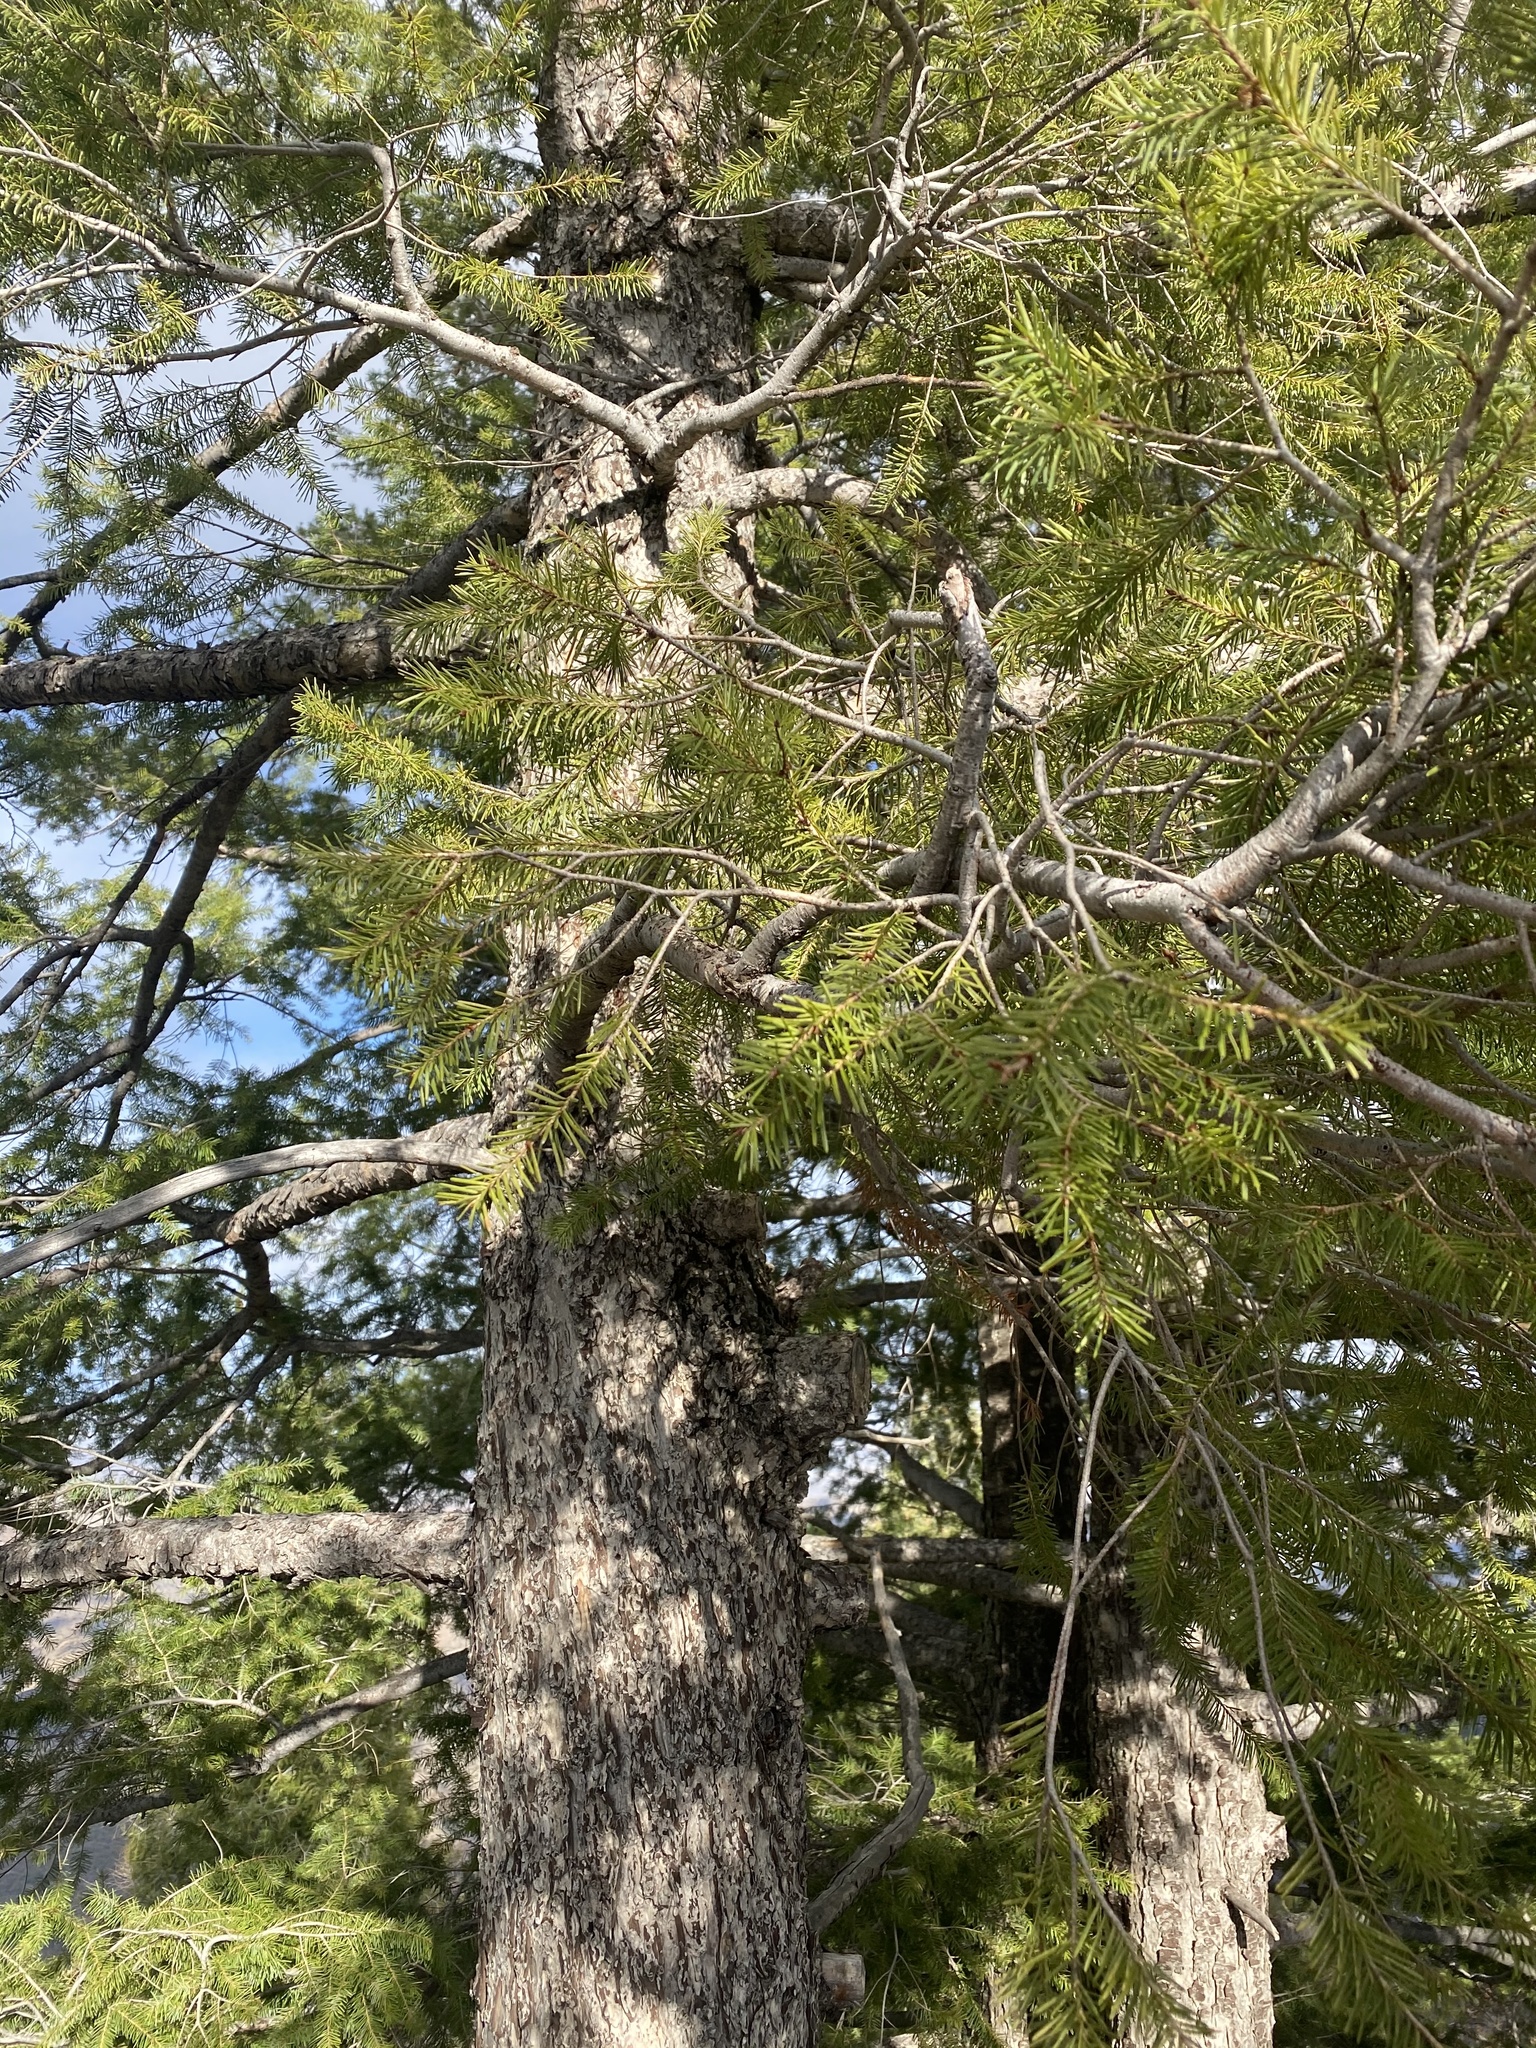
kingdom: Plantae
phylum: Tracheophyta
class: Pinopsida
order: Pinales
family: Pinaceae
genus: Pseudotsuga
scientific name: Pseudotsuga menziesii
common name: Douglas fir
